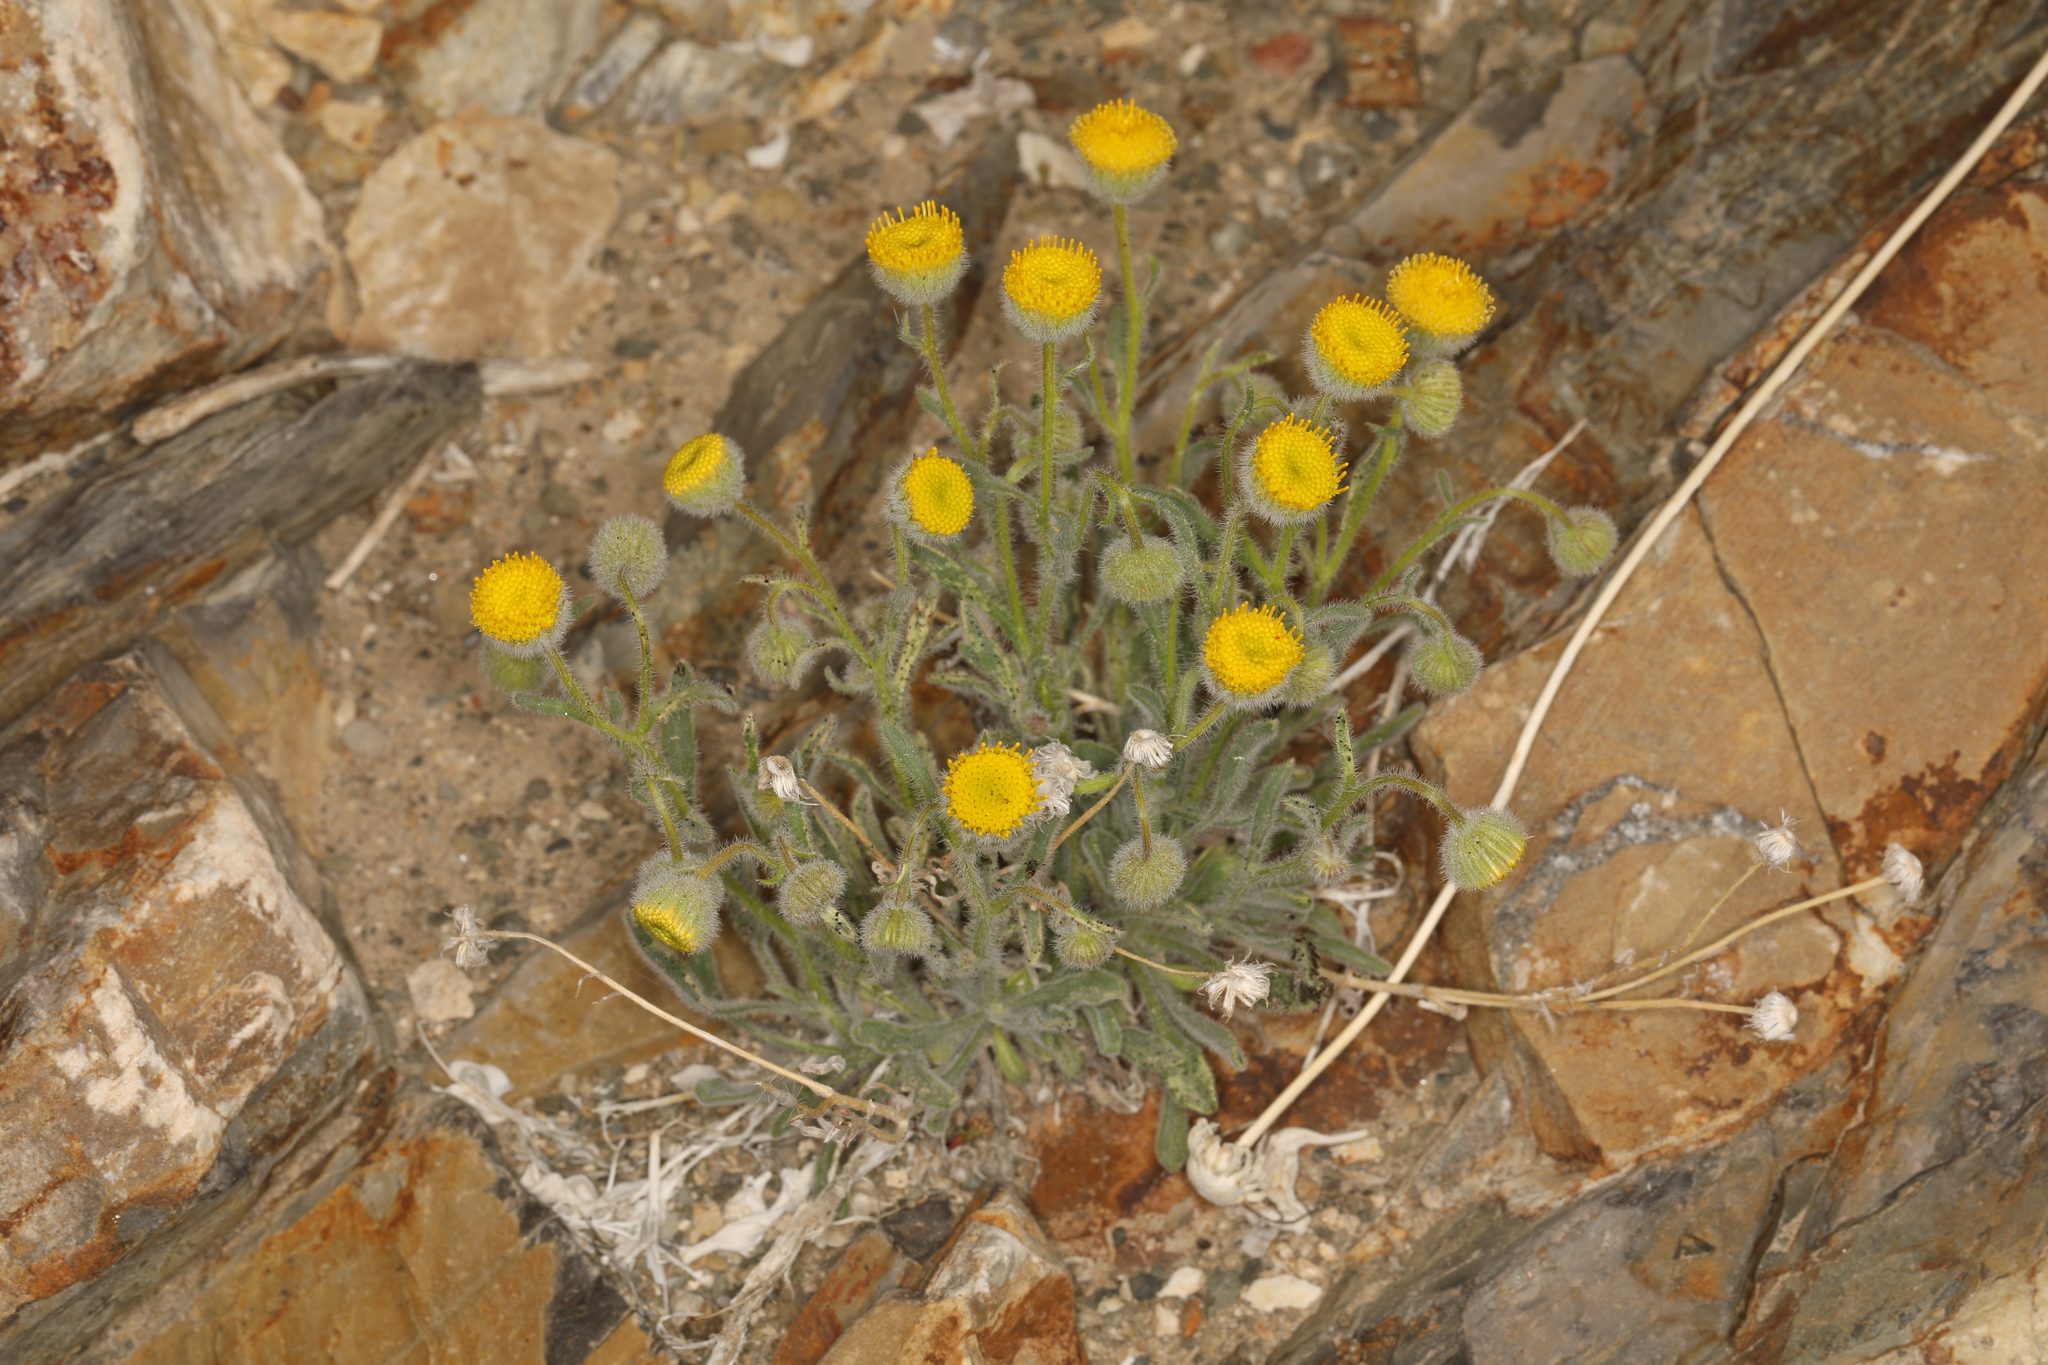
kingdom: Plantae
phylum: Tracheophyta
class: Magnoliopsida
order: Asterales
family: Asteraceae
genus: Erigeron
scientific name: Erigeron aphanactis
